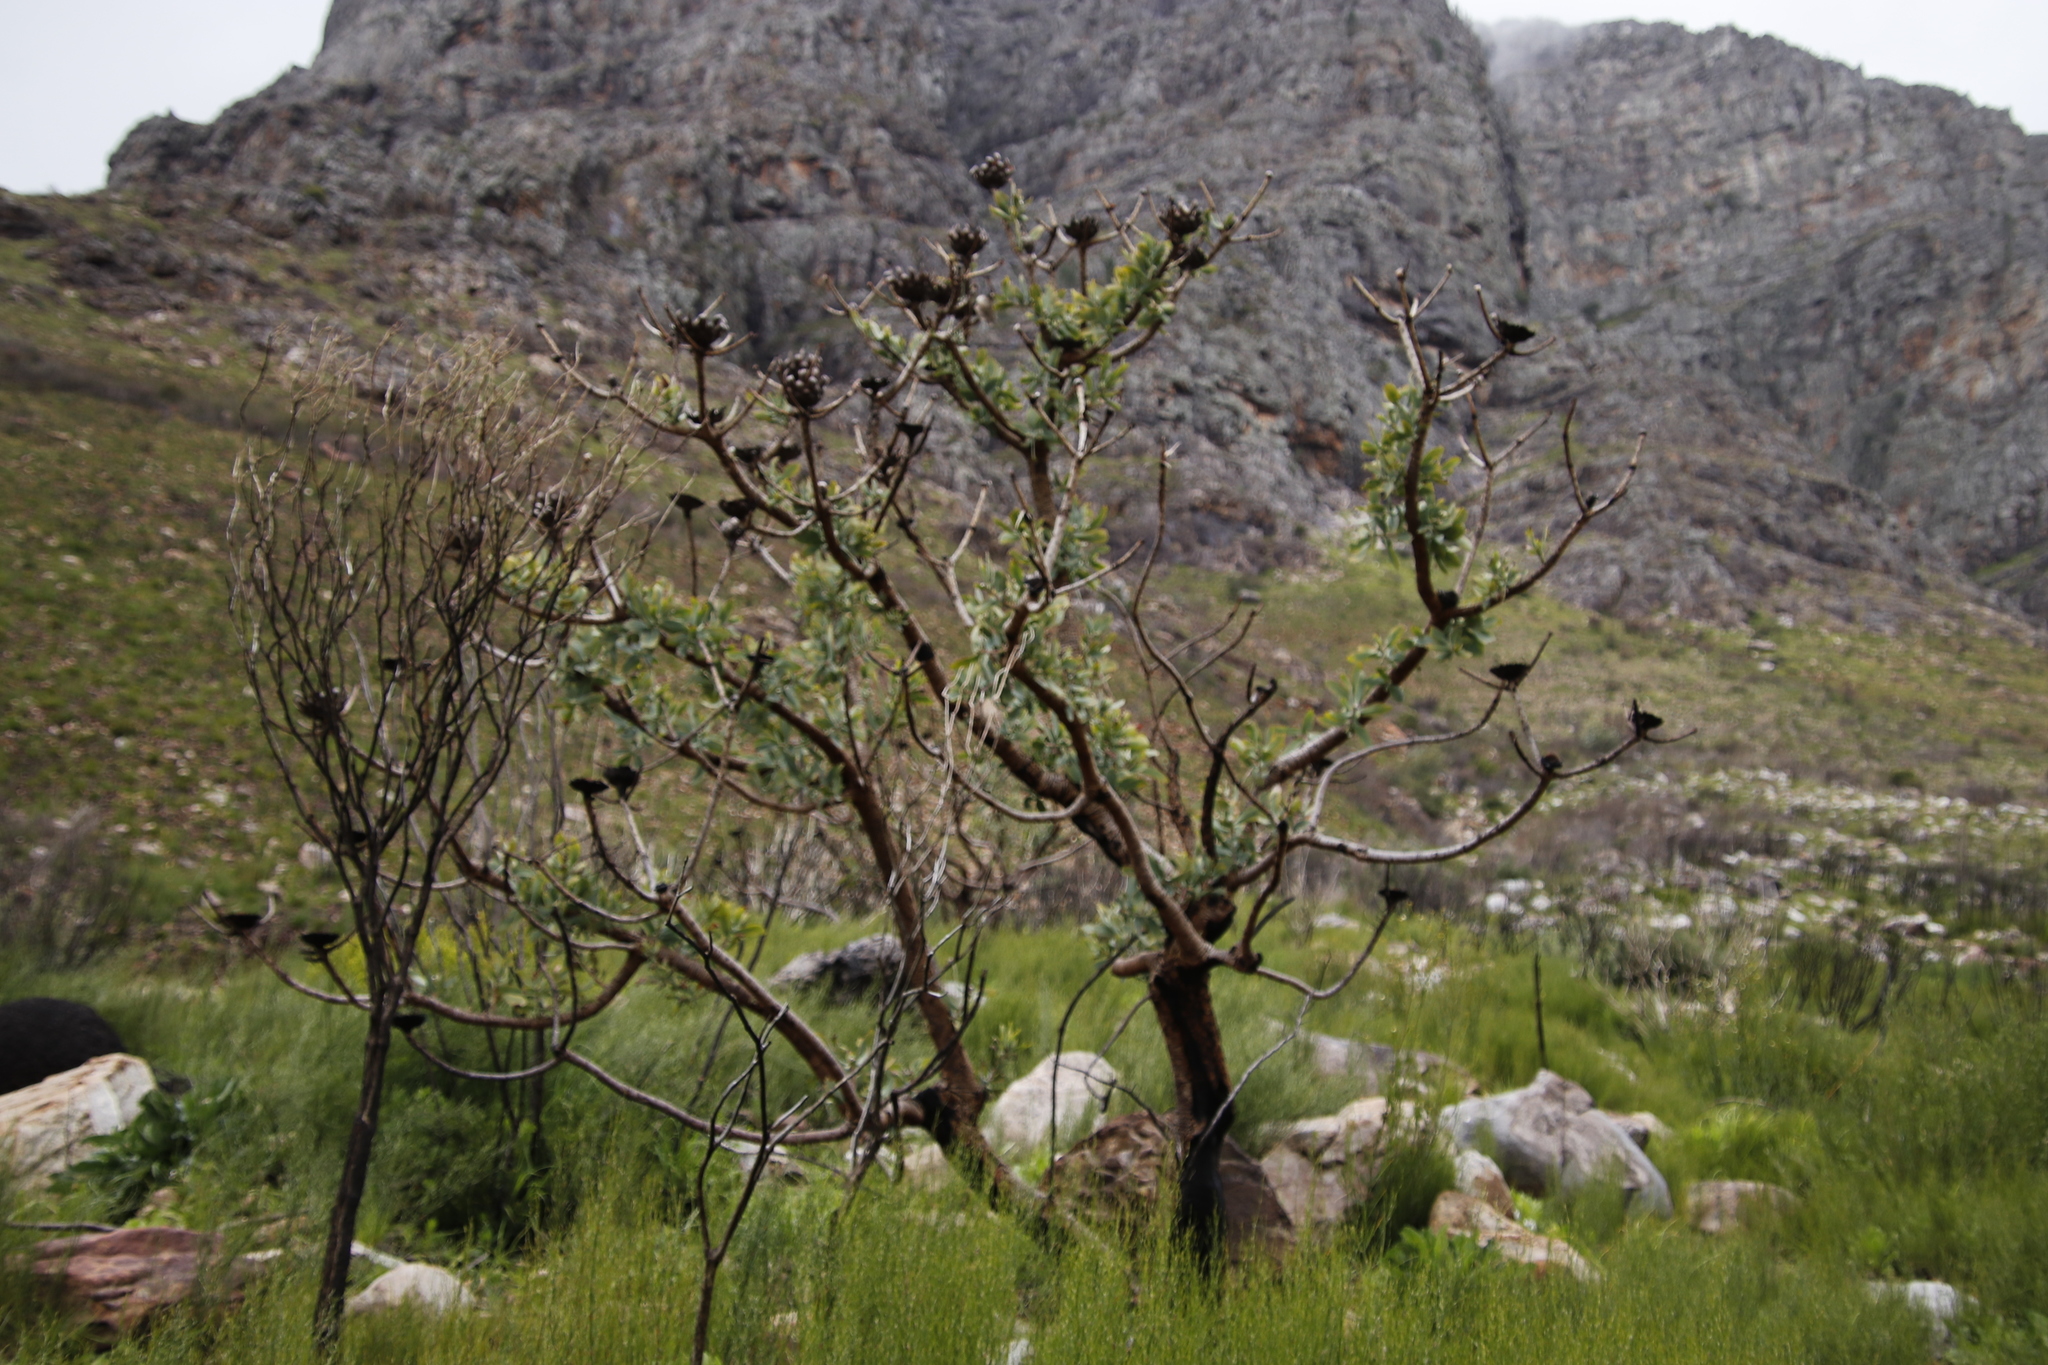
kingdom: Plantae
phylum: Tracheophyta
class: Magnoliopsida
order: Proteales
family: Proteaceae
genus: Protea
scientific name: Protea nitida
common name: Tree protea
